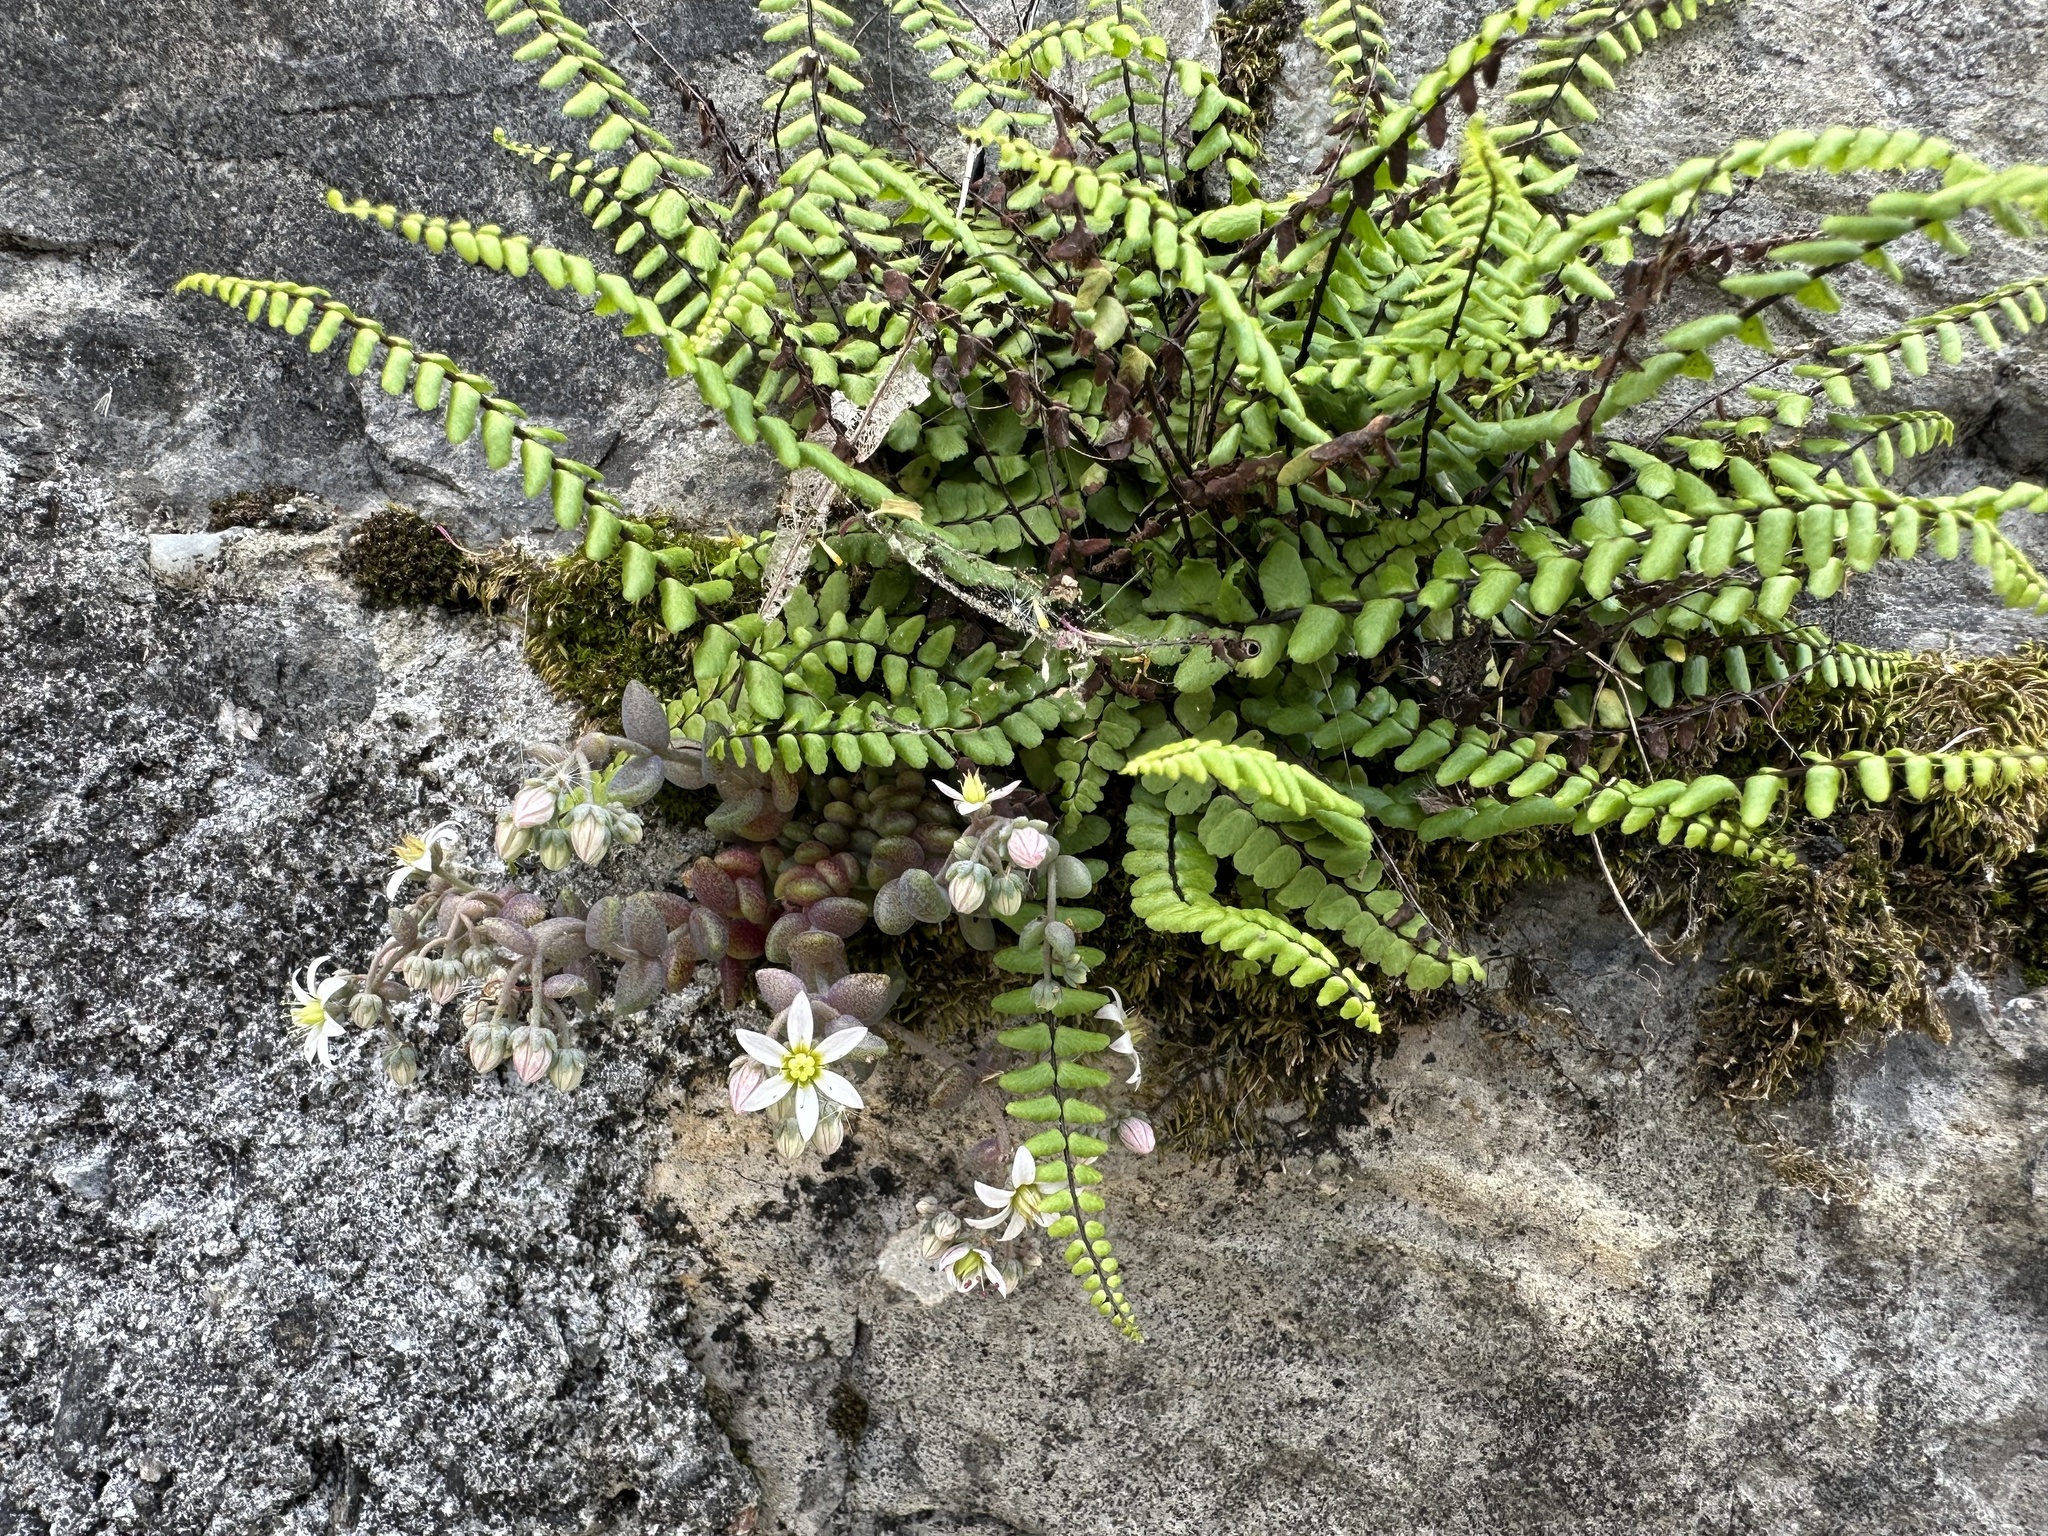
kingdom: Plantae
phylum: Tracheophyta
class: Polypodiopsida
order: Polypodiales
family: Aspleniaceae
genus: Asplenium
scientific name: Asplenium trichomanes
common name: Maidenhair spleenwort
